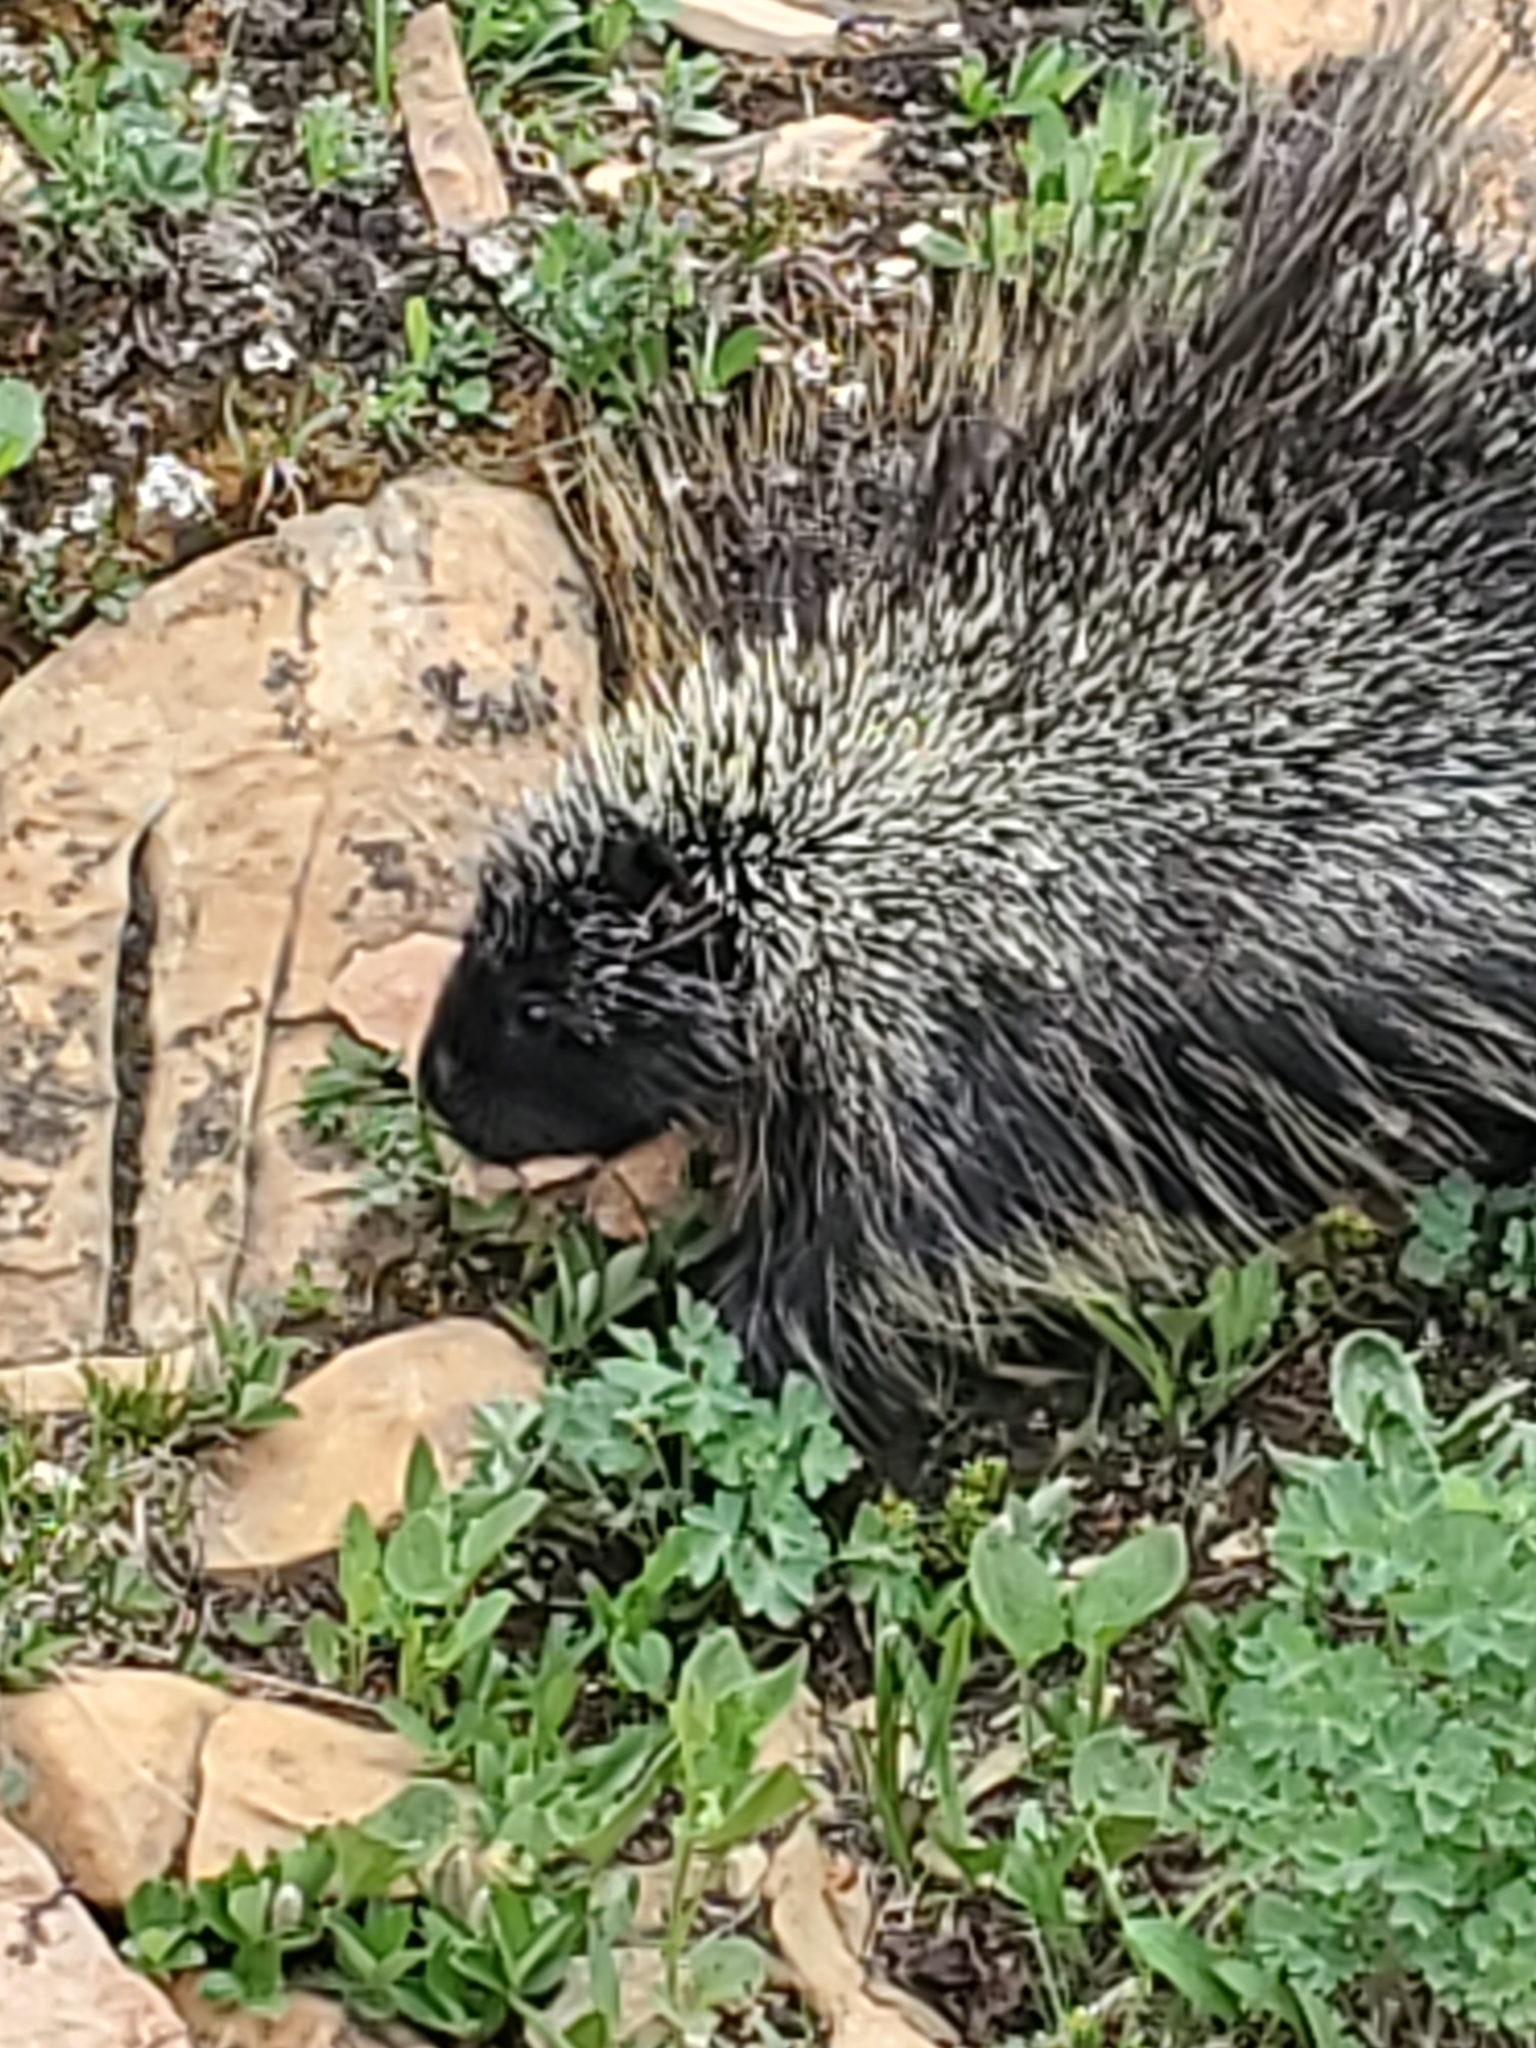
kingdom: Animalia
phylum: Chordata
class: Mammalia
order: Rodentia
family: Erethizontidae
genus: Erethizon
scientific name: Erethizon dorsatus
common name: North american porcupine
